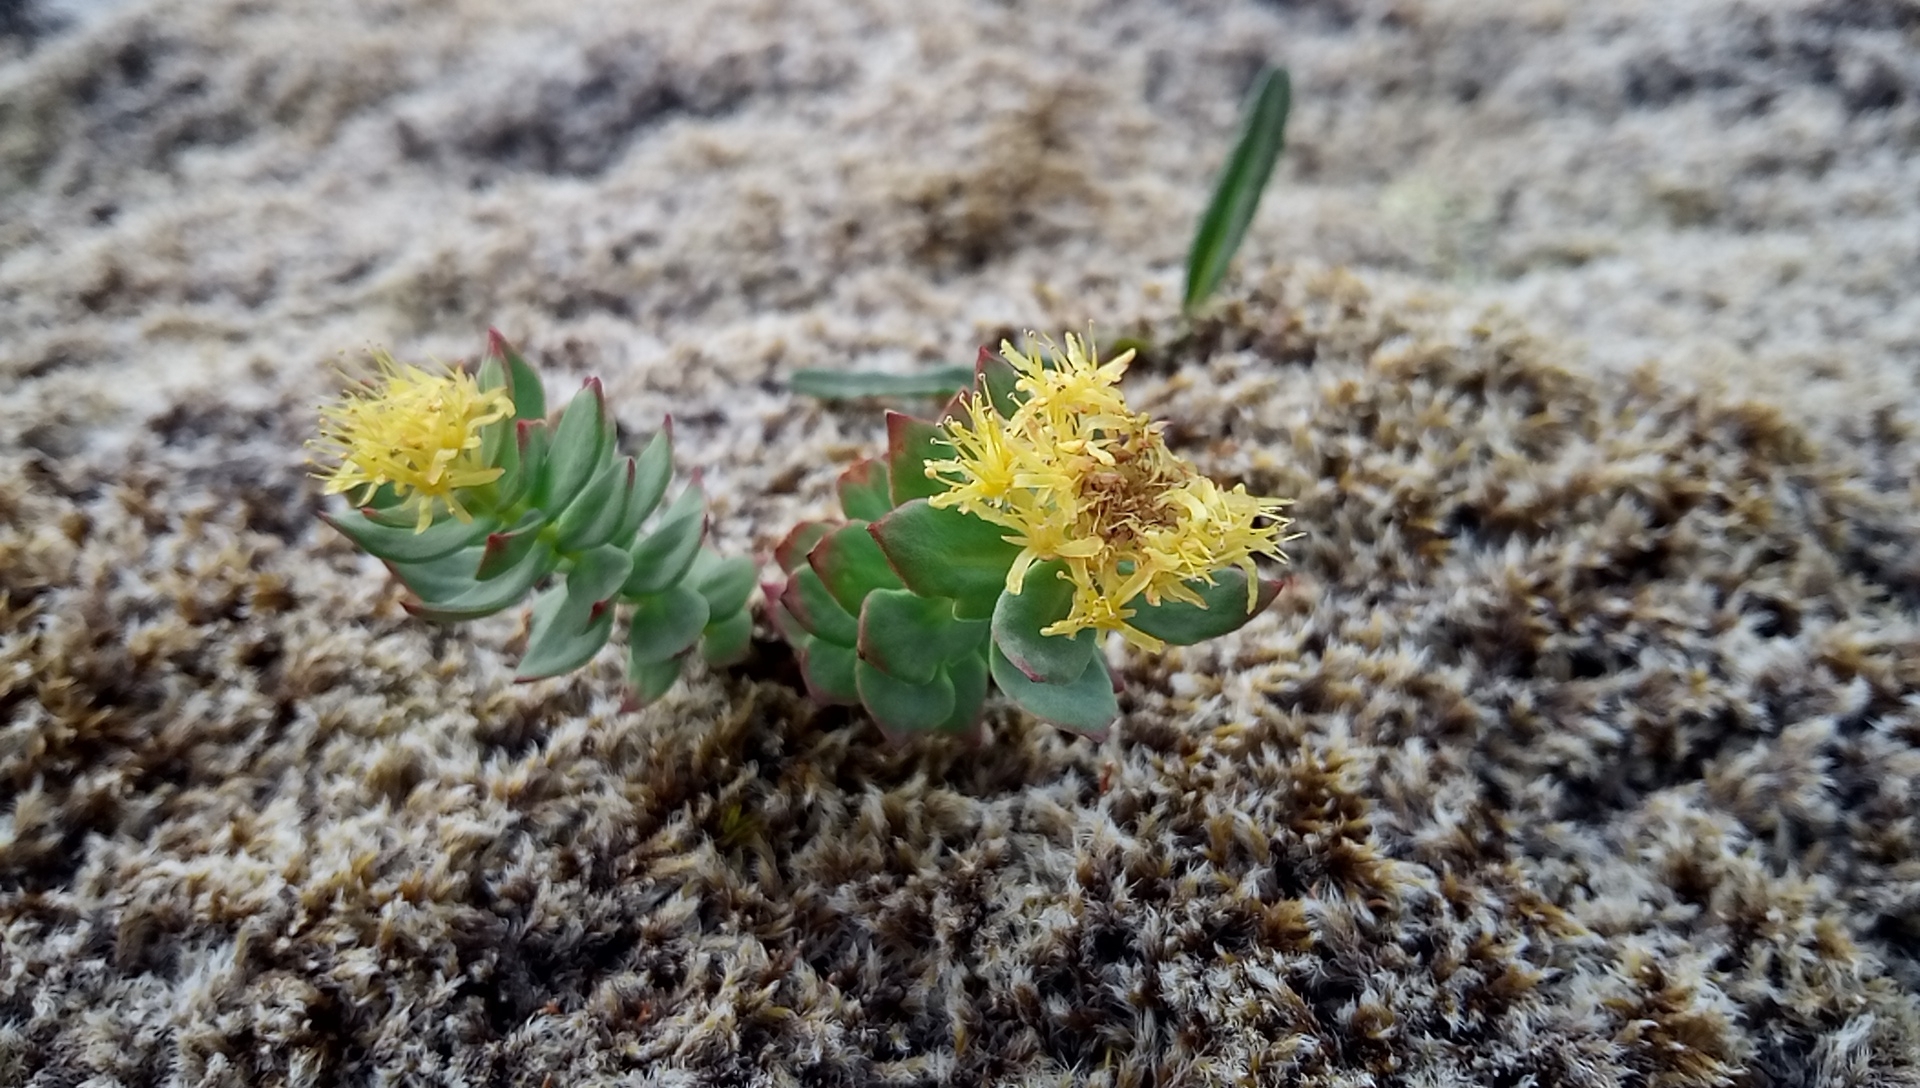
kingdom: Plantae
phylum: Tracheophyta
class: Magnoliopsida
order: Saxifragales
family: Crassulaceae
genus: Rhodiola
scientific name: Rhodiola rosea
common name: Roseroot
